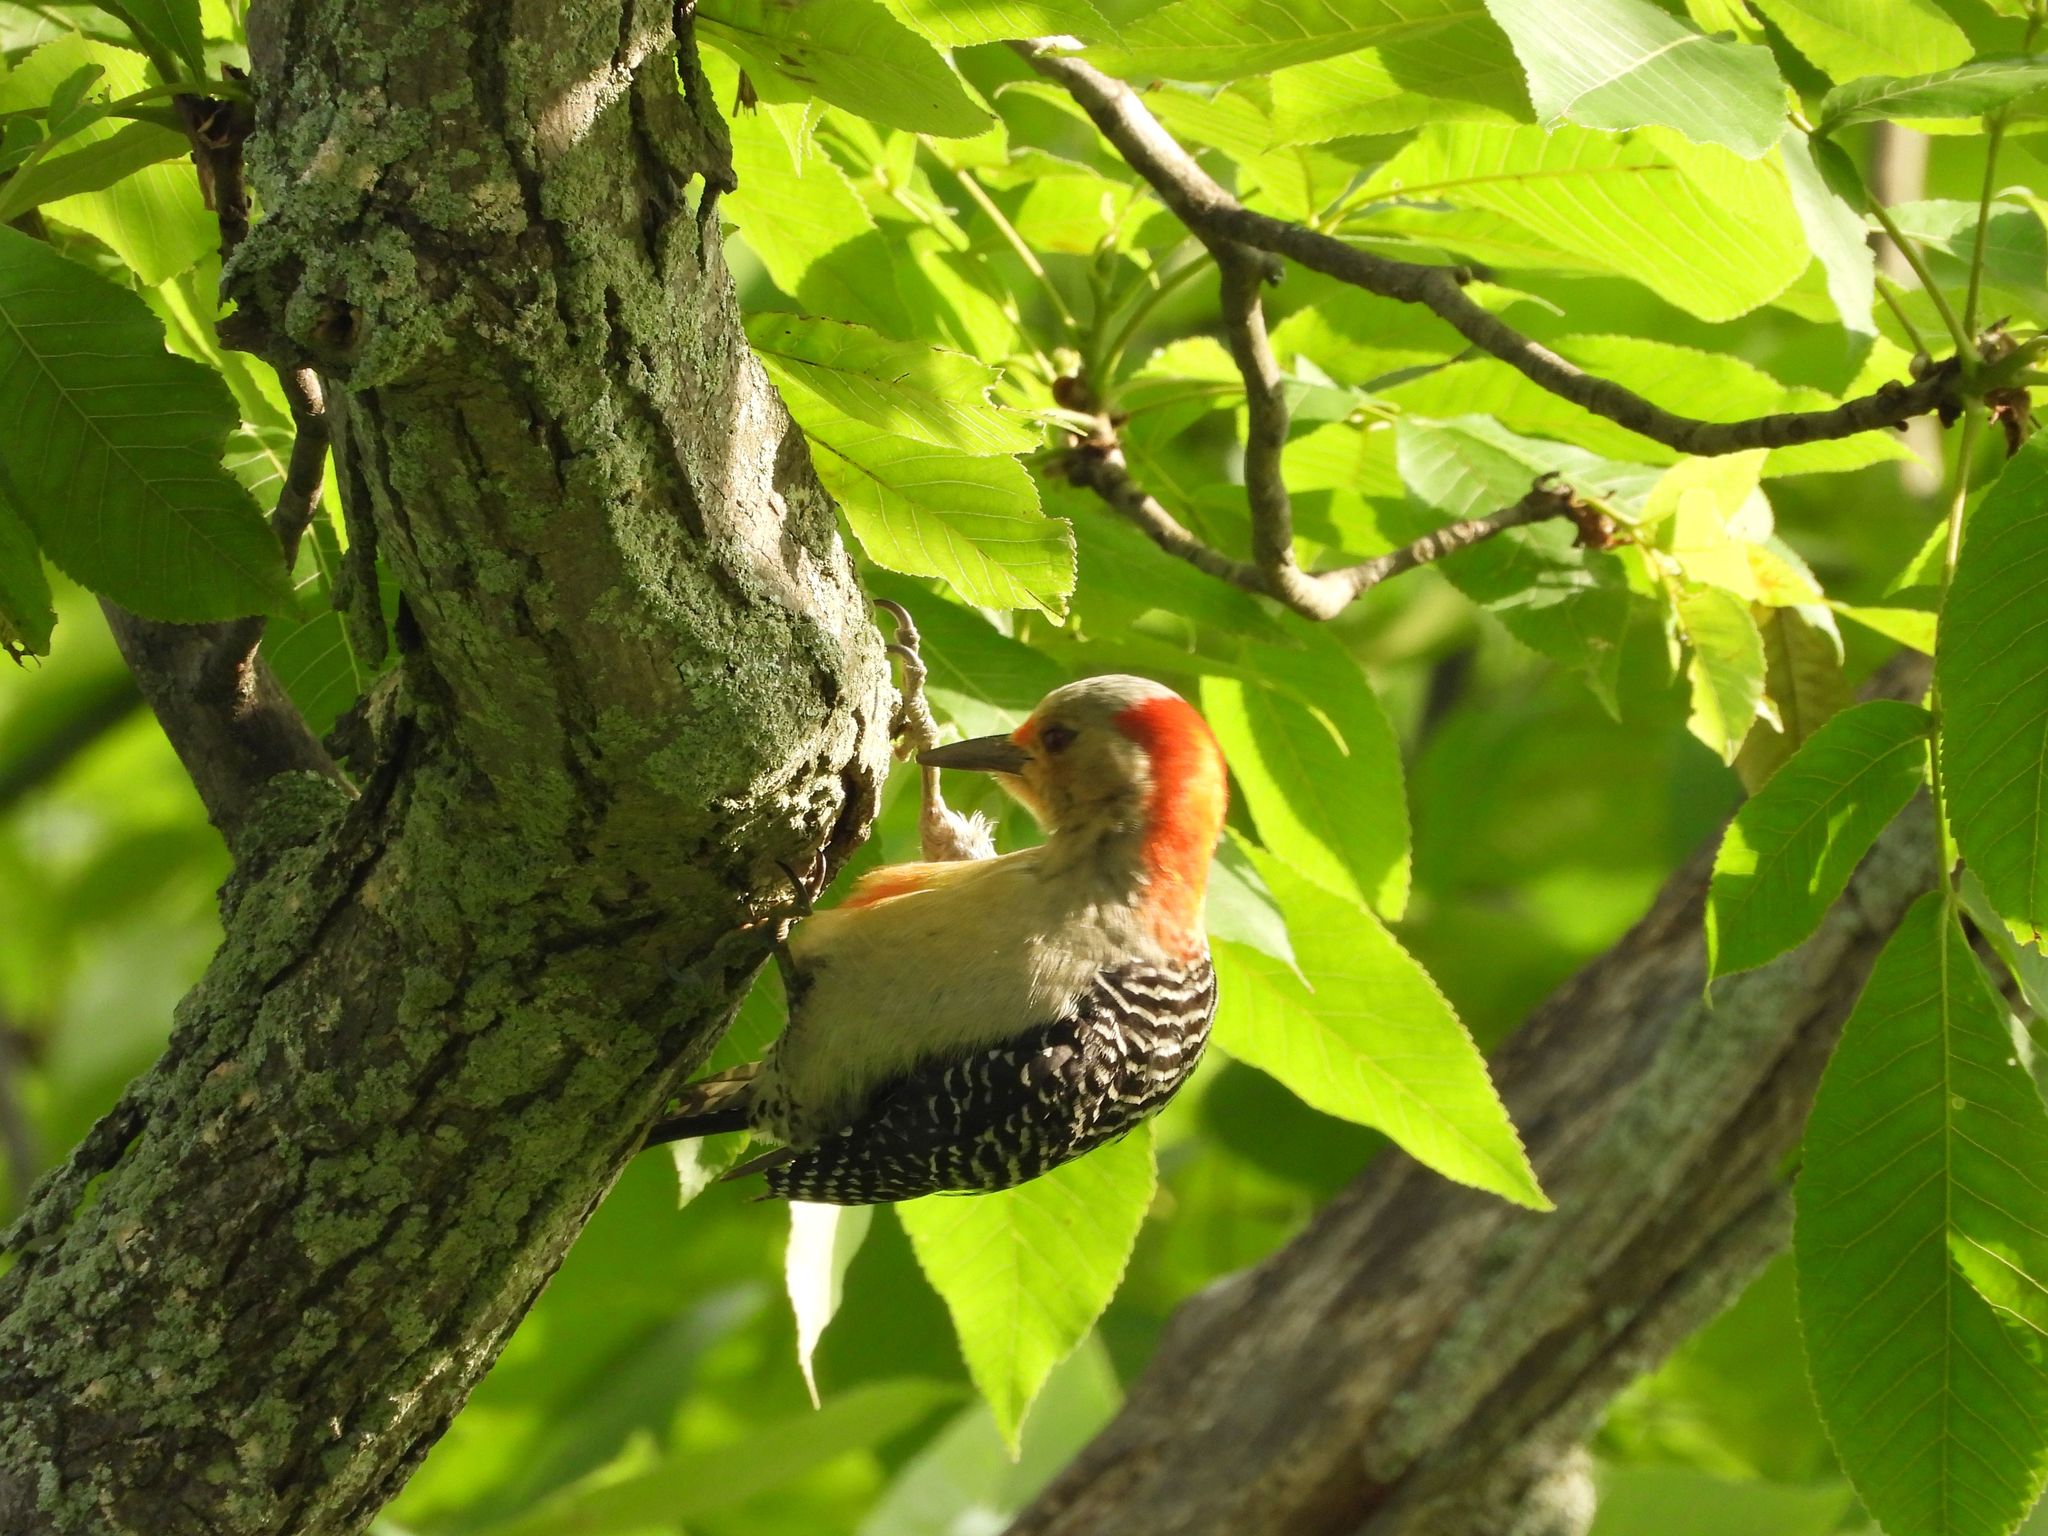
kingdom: Animalia
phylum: Chordata
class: Aves
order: Piciformes
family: Picidae
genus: Melanerpes
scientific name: Melanerpes carolinus
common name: Red-bellied woodpecker
